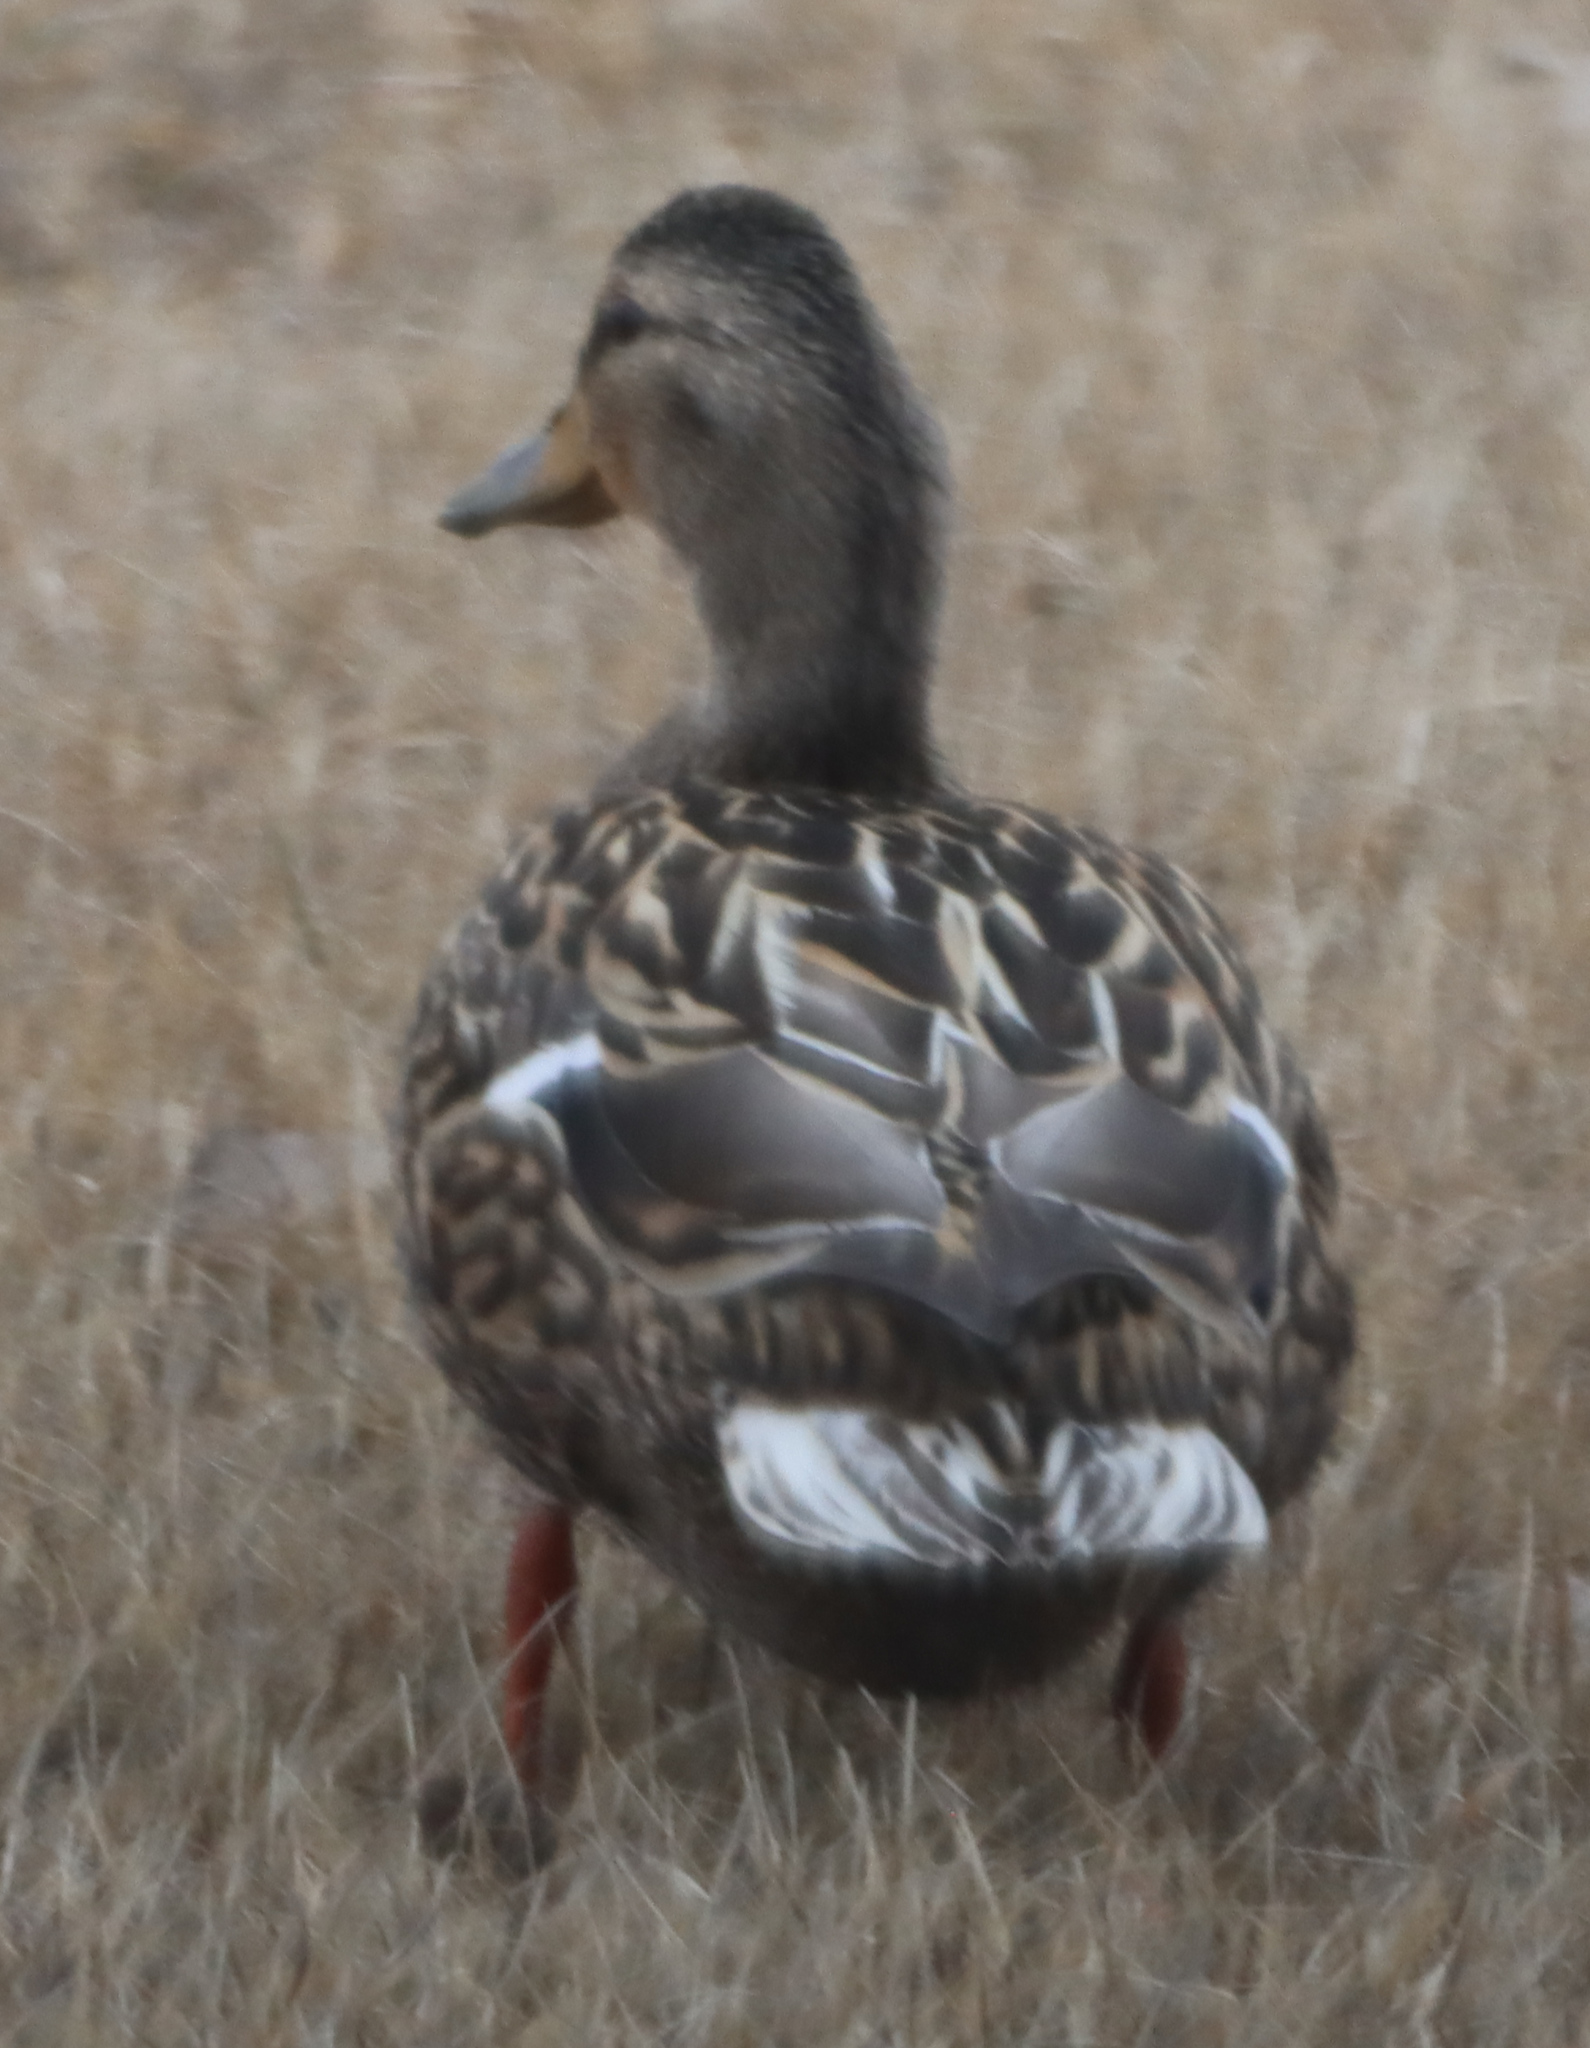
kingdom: Animalia
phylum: Chordata
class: Aves
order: Anseriformes
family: Anatidae
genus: Anas
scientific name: Anas platyrhynchos
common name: Mallard
